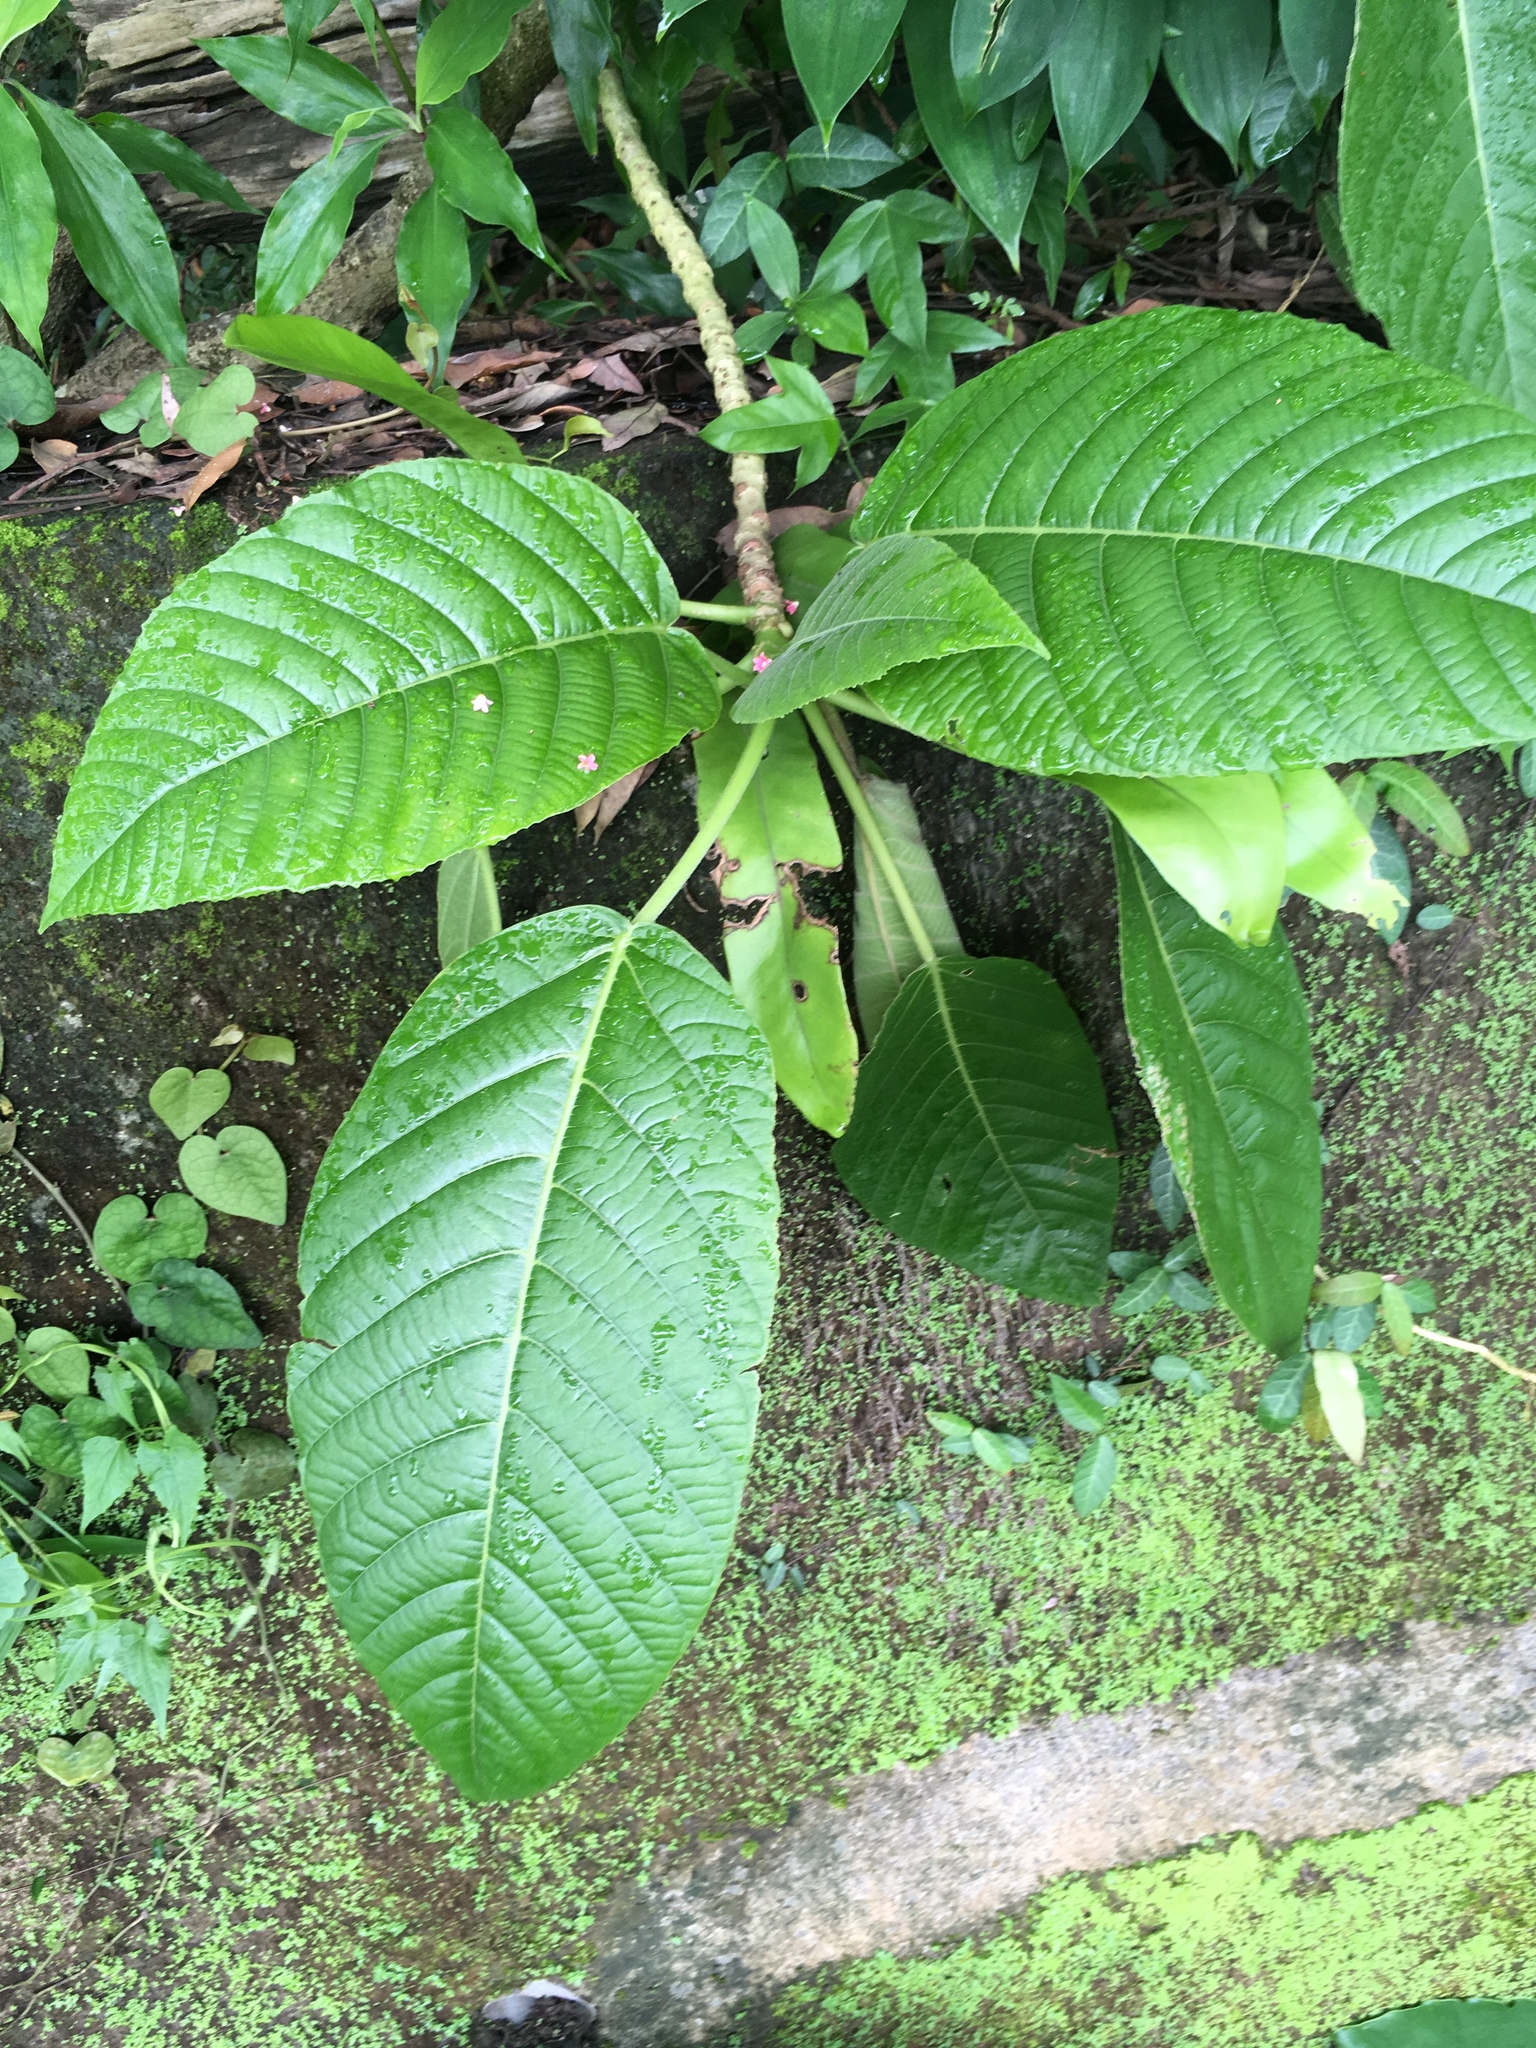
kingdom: Plantae
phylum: Tracheophyta
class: Magnoliopsida
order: Rosales
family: Urticaceae
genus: Dendrocnide
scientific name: Dendrocnide meyeniana
